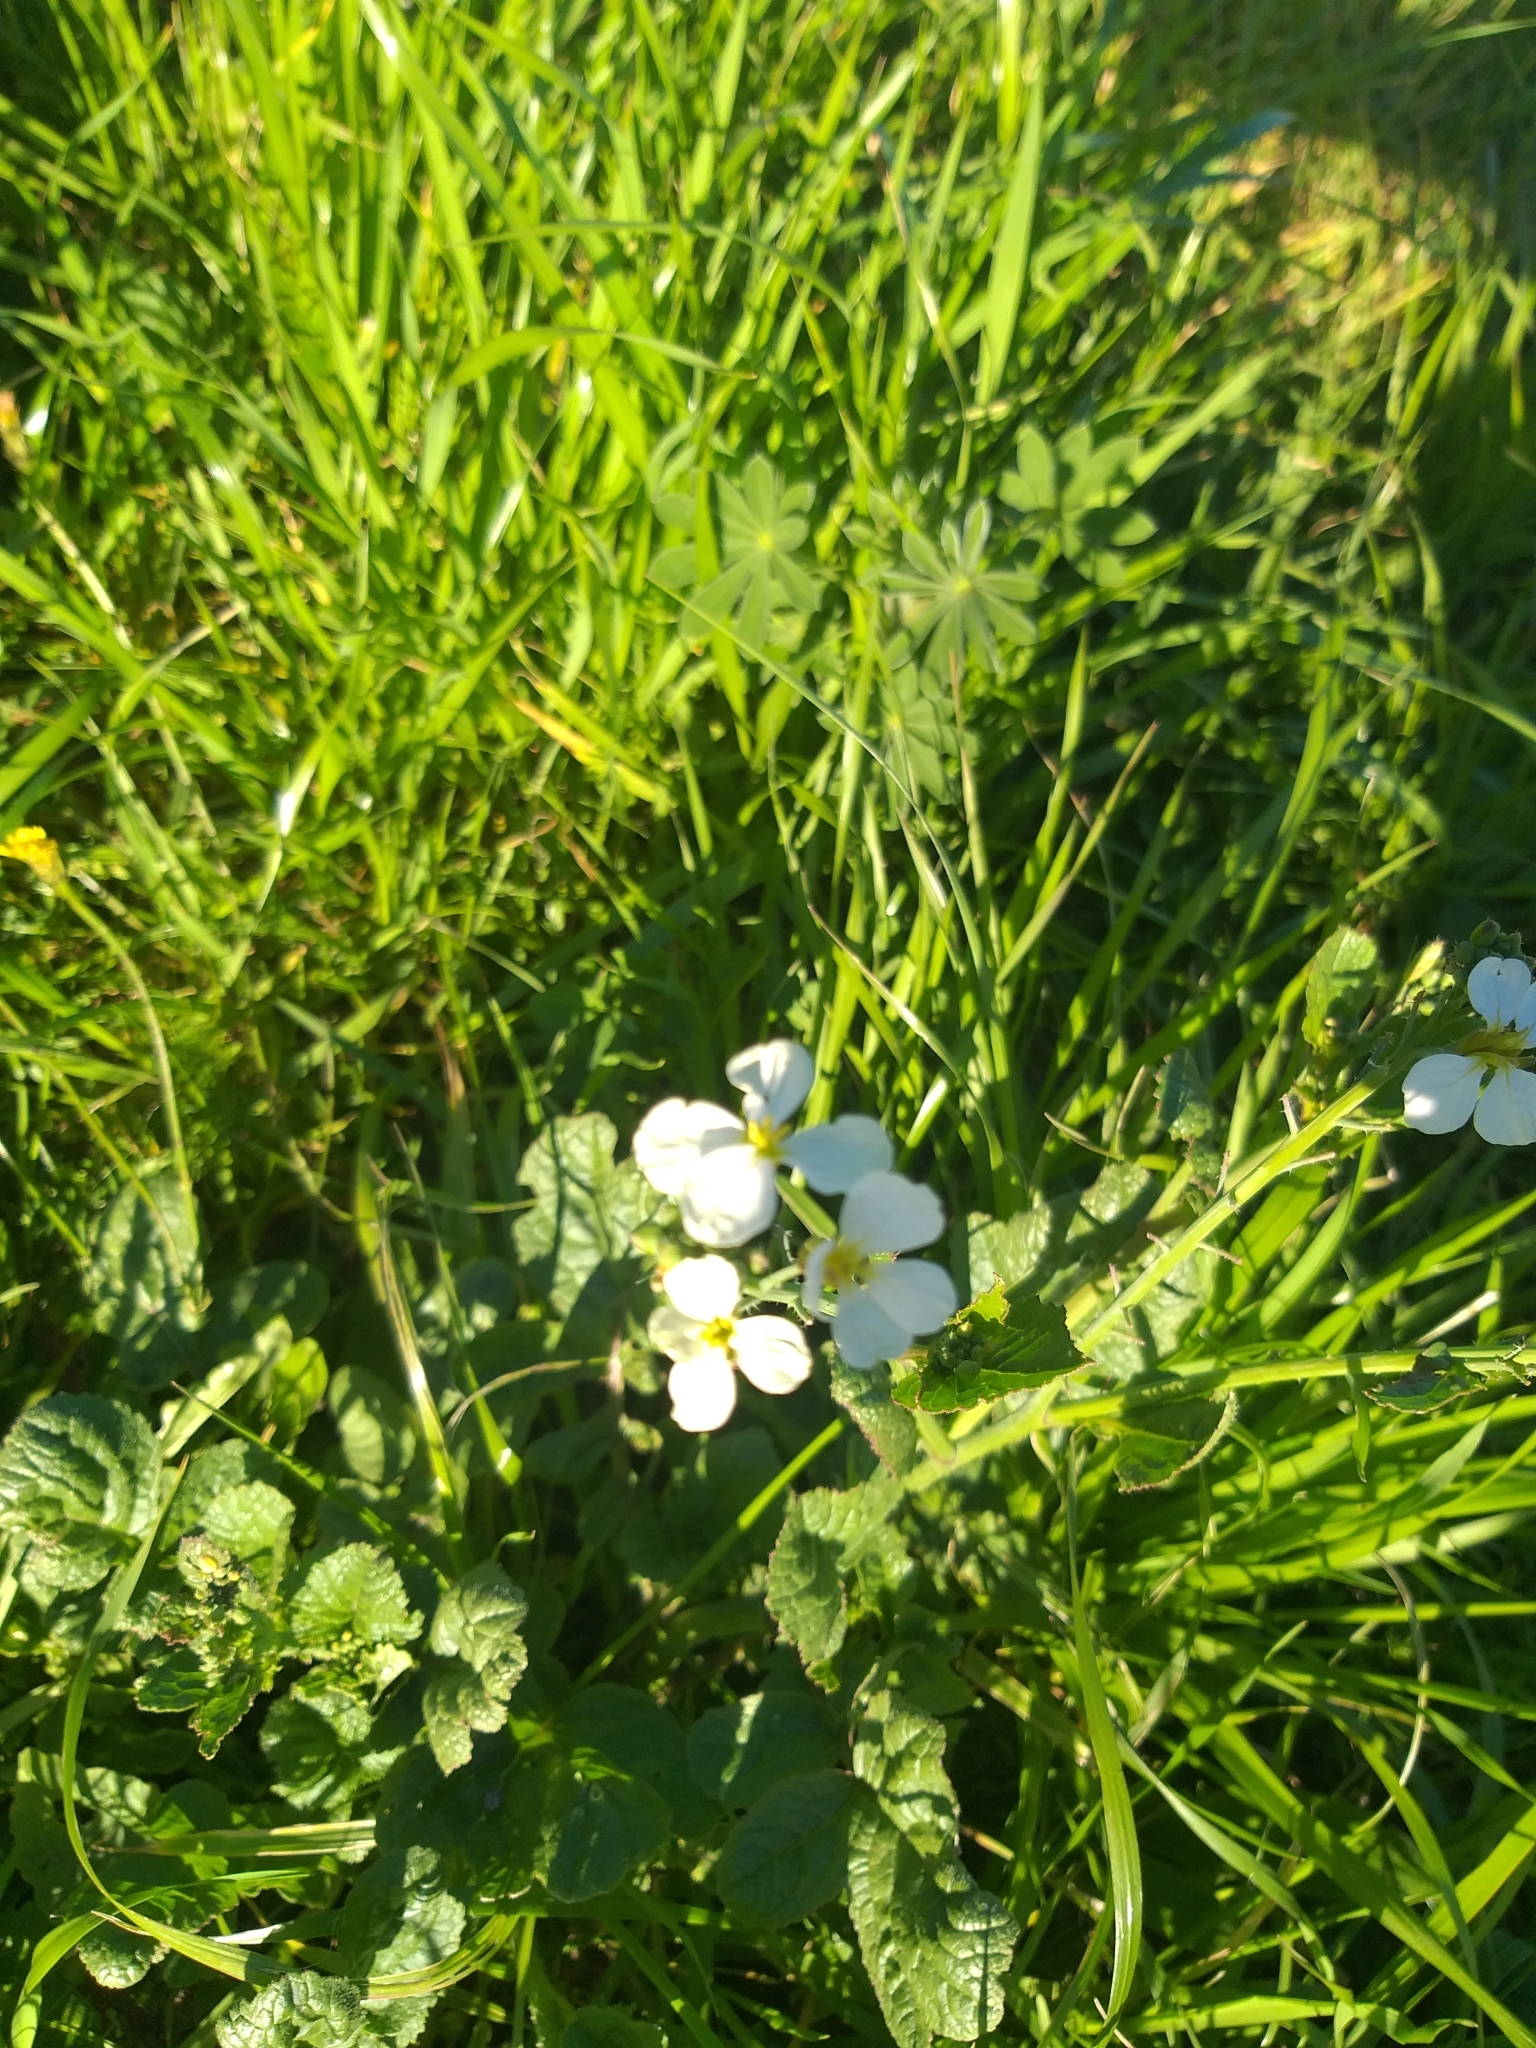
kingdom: Plantae
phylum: Tracheophyta
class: Magnoliopsida
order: Brassicales
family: Brassicaceae
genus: Raphanus
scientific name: Raphanus sativus
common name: Cultivated radish
